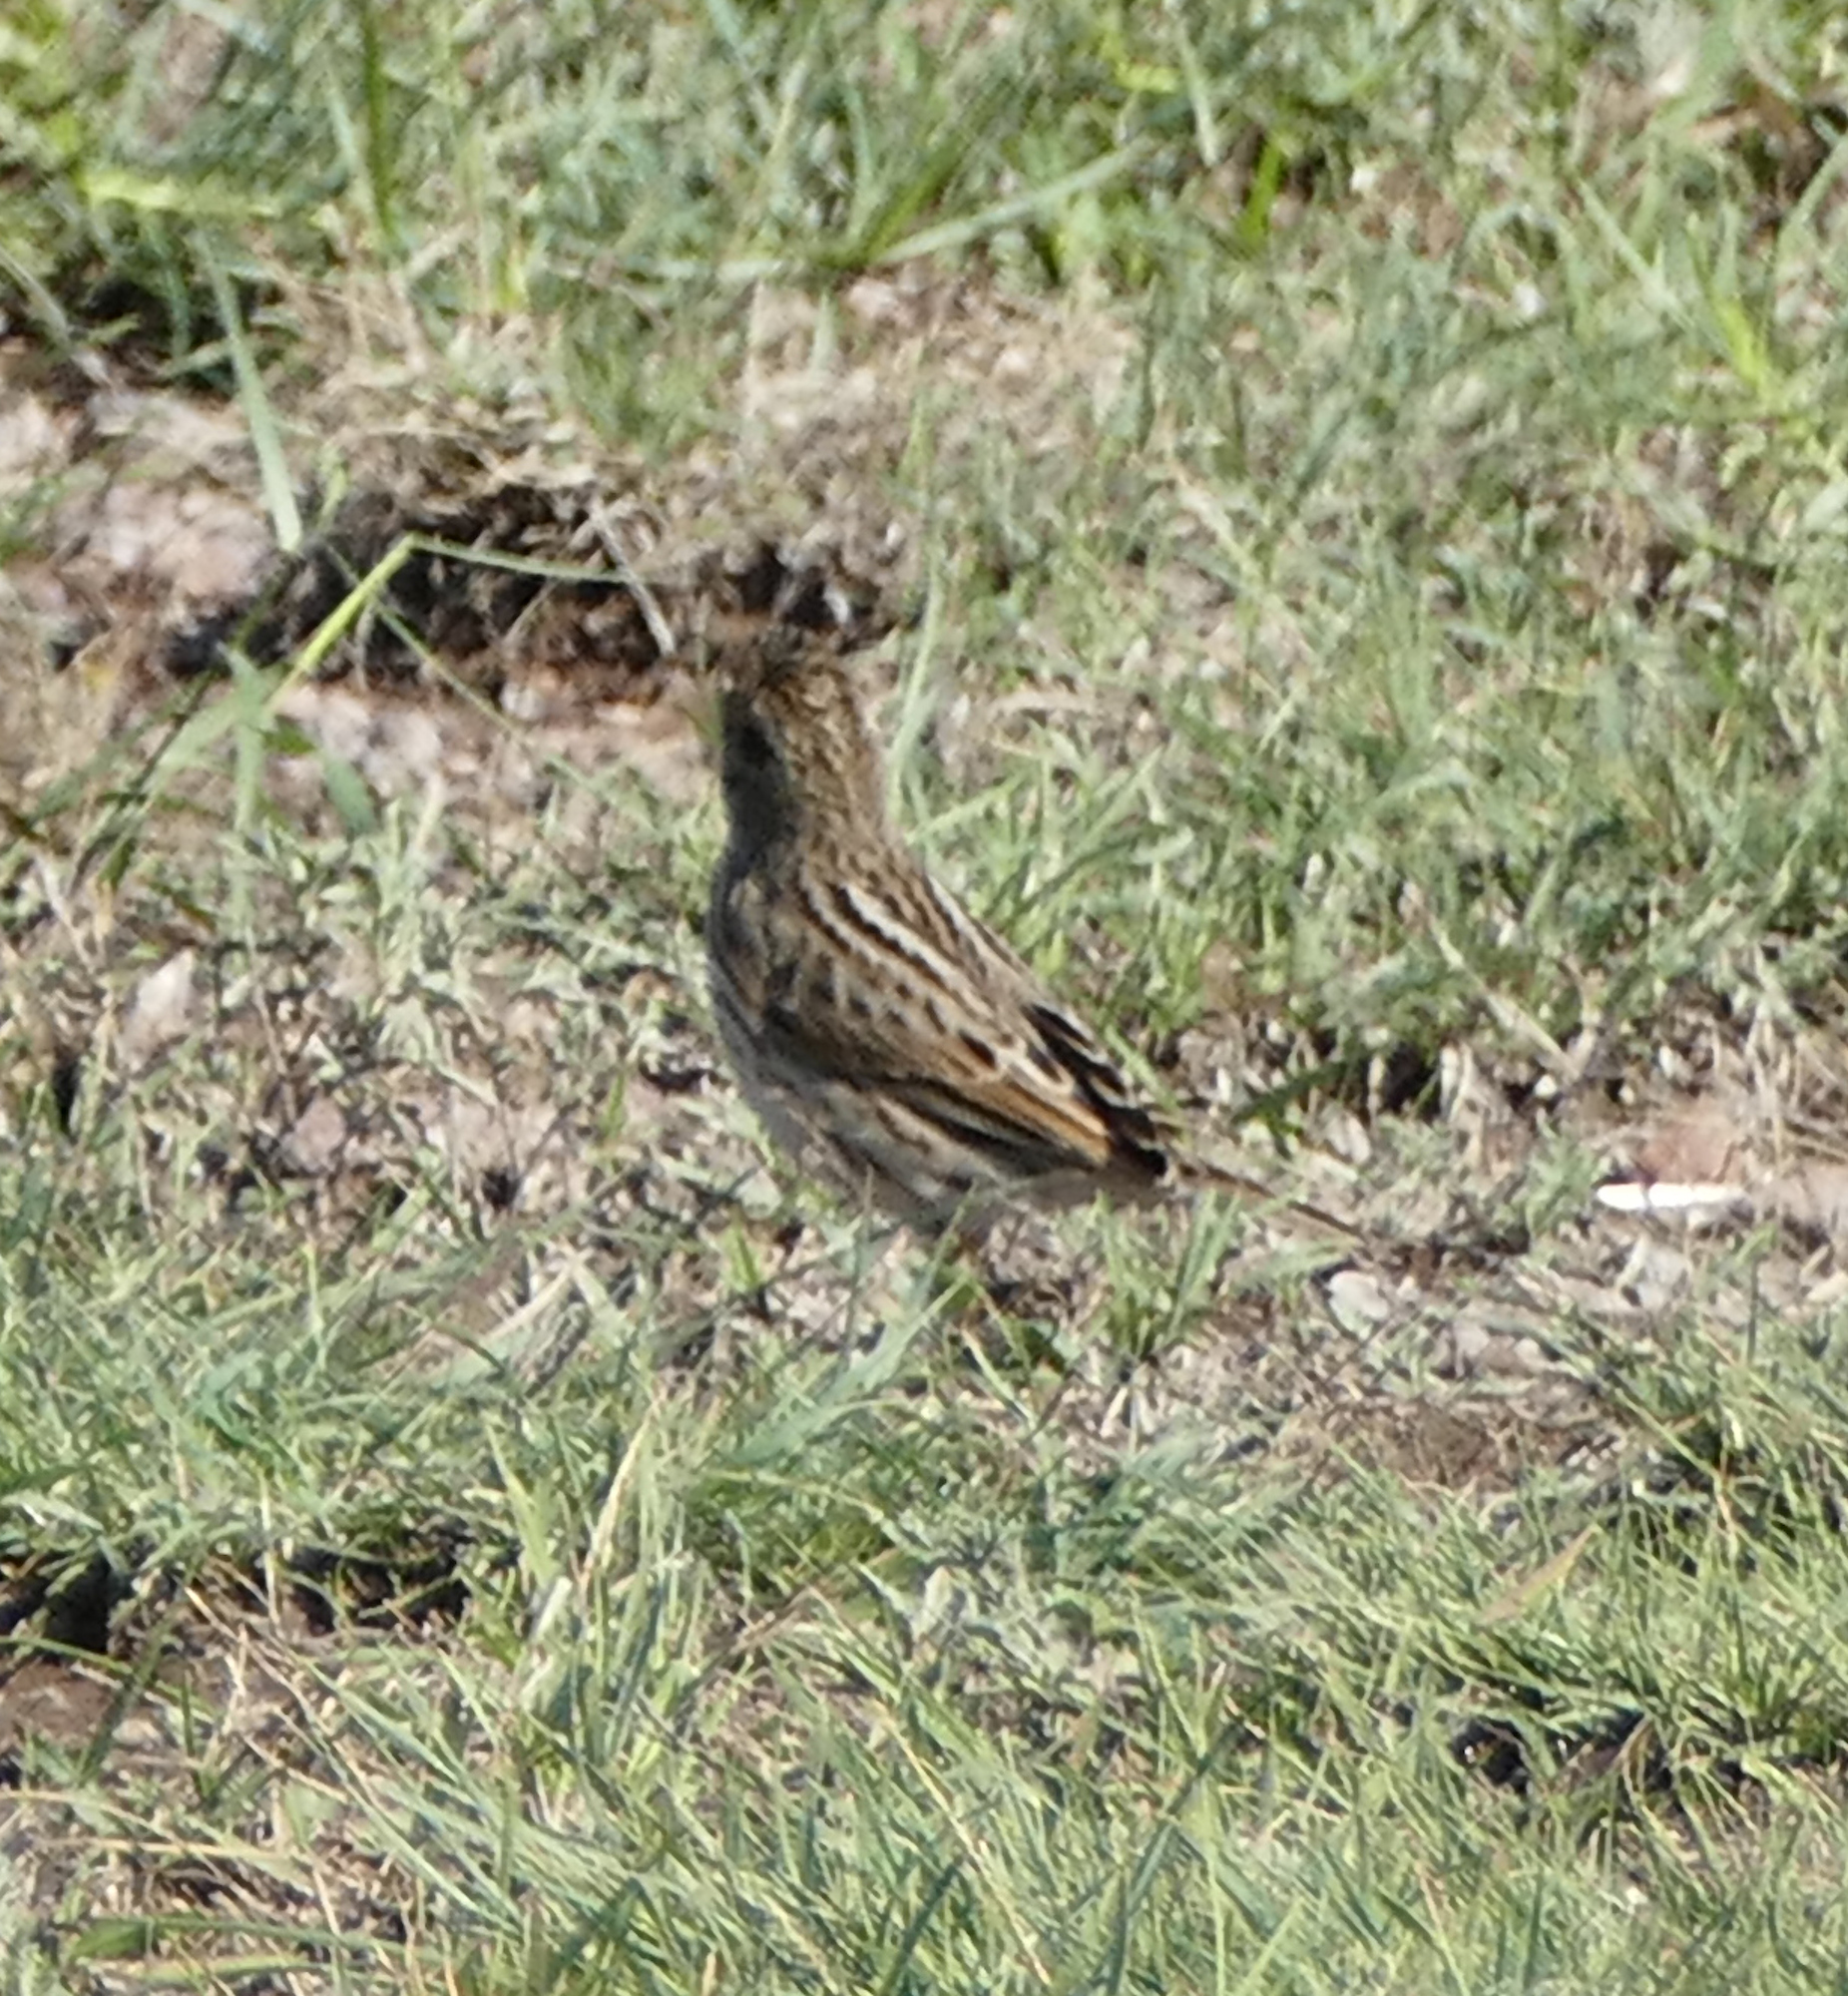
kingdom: Animalia
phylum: Chordata
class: Aves
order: Passeriformes
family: Passerellidae
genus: Passerculus
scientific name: Passerculus sandwichensis
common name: Savannah sparrow
